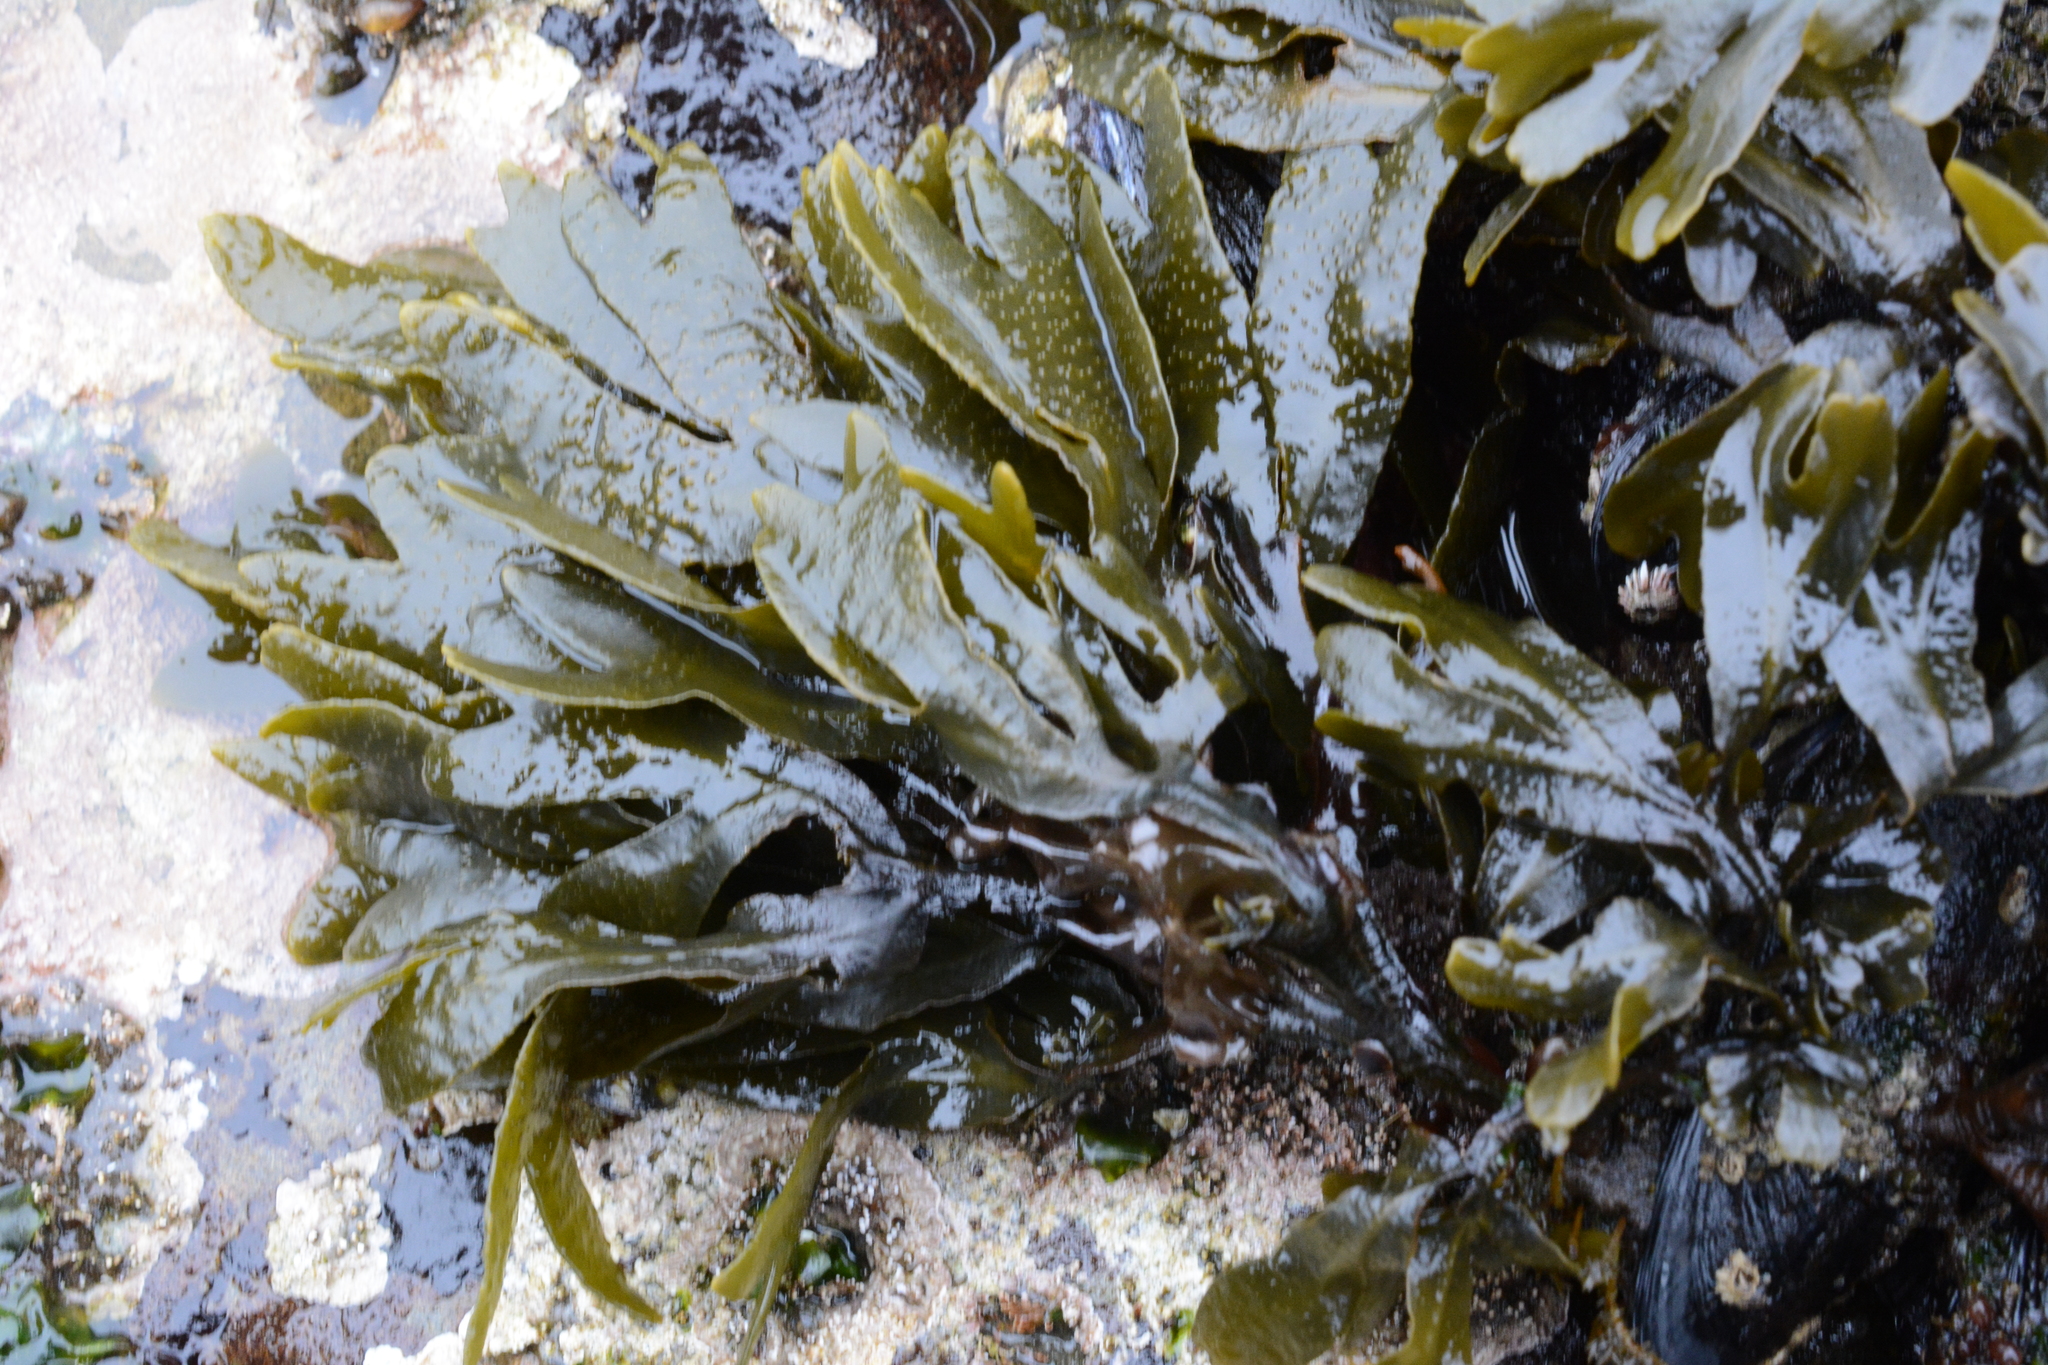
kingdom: Chromista
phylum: Ochrophyta
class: Phaeophyceae
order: Fucales
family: Fucaceae
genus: Fucus
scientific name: Fucus distichus
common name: Rockweed
